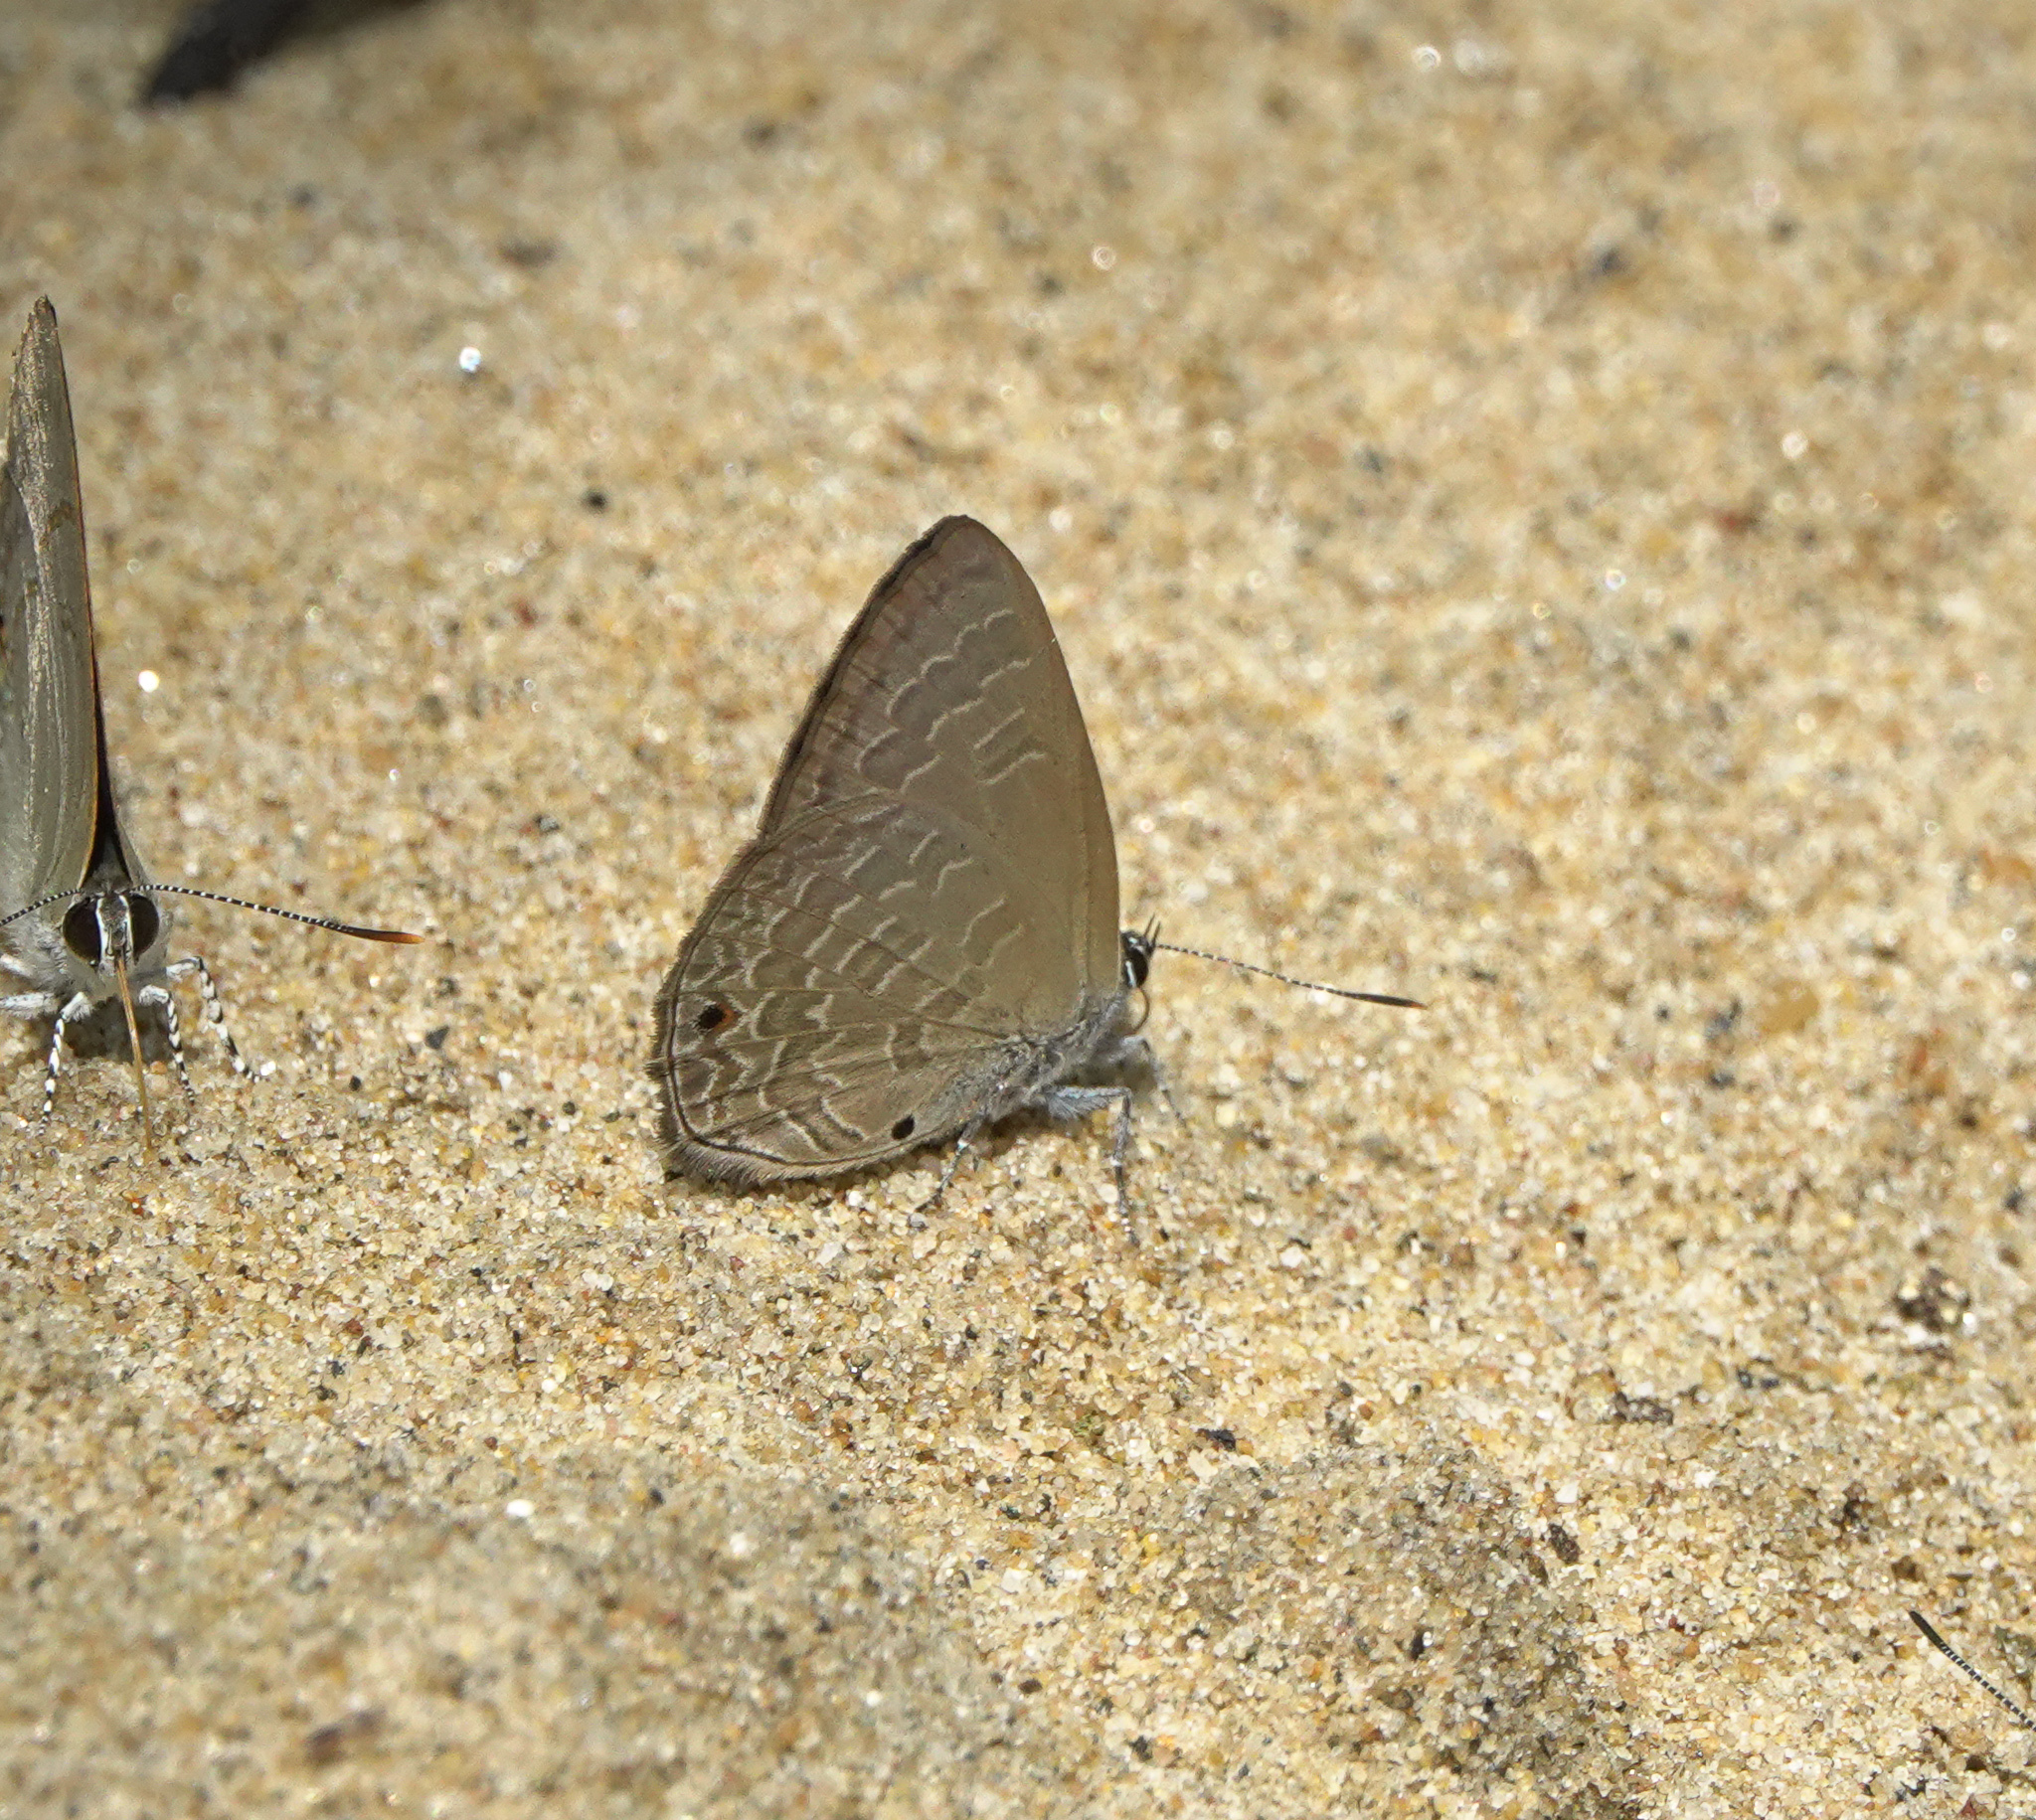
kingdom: Animalia
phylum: Arthropoda
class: Insecta
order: Lepidoptera
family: Lycaenidae
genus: Anthene
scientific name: Anthene emolus
